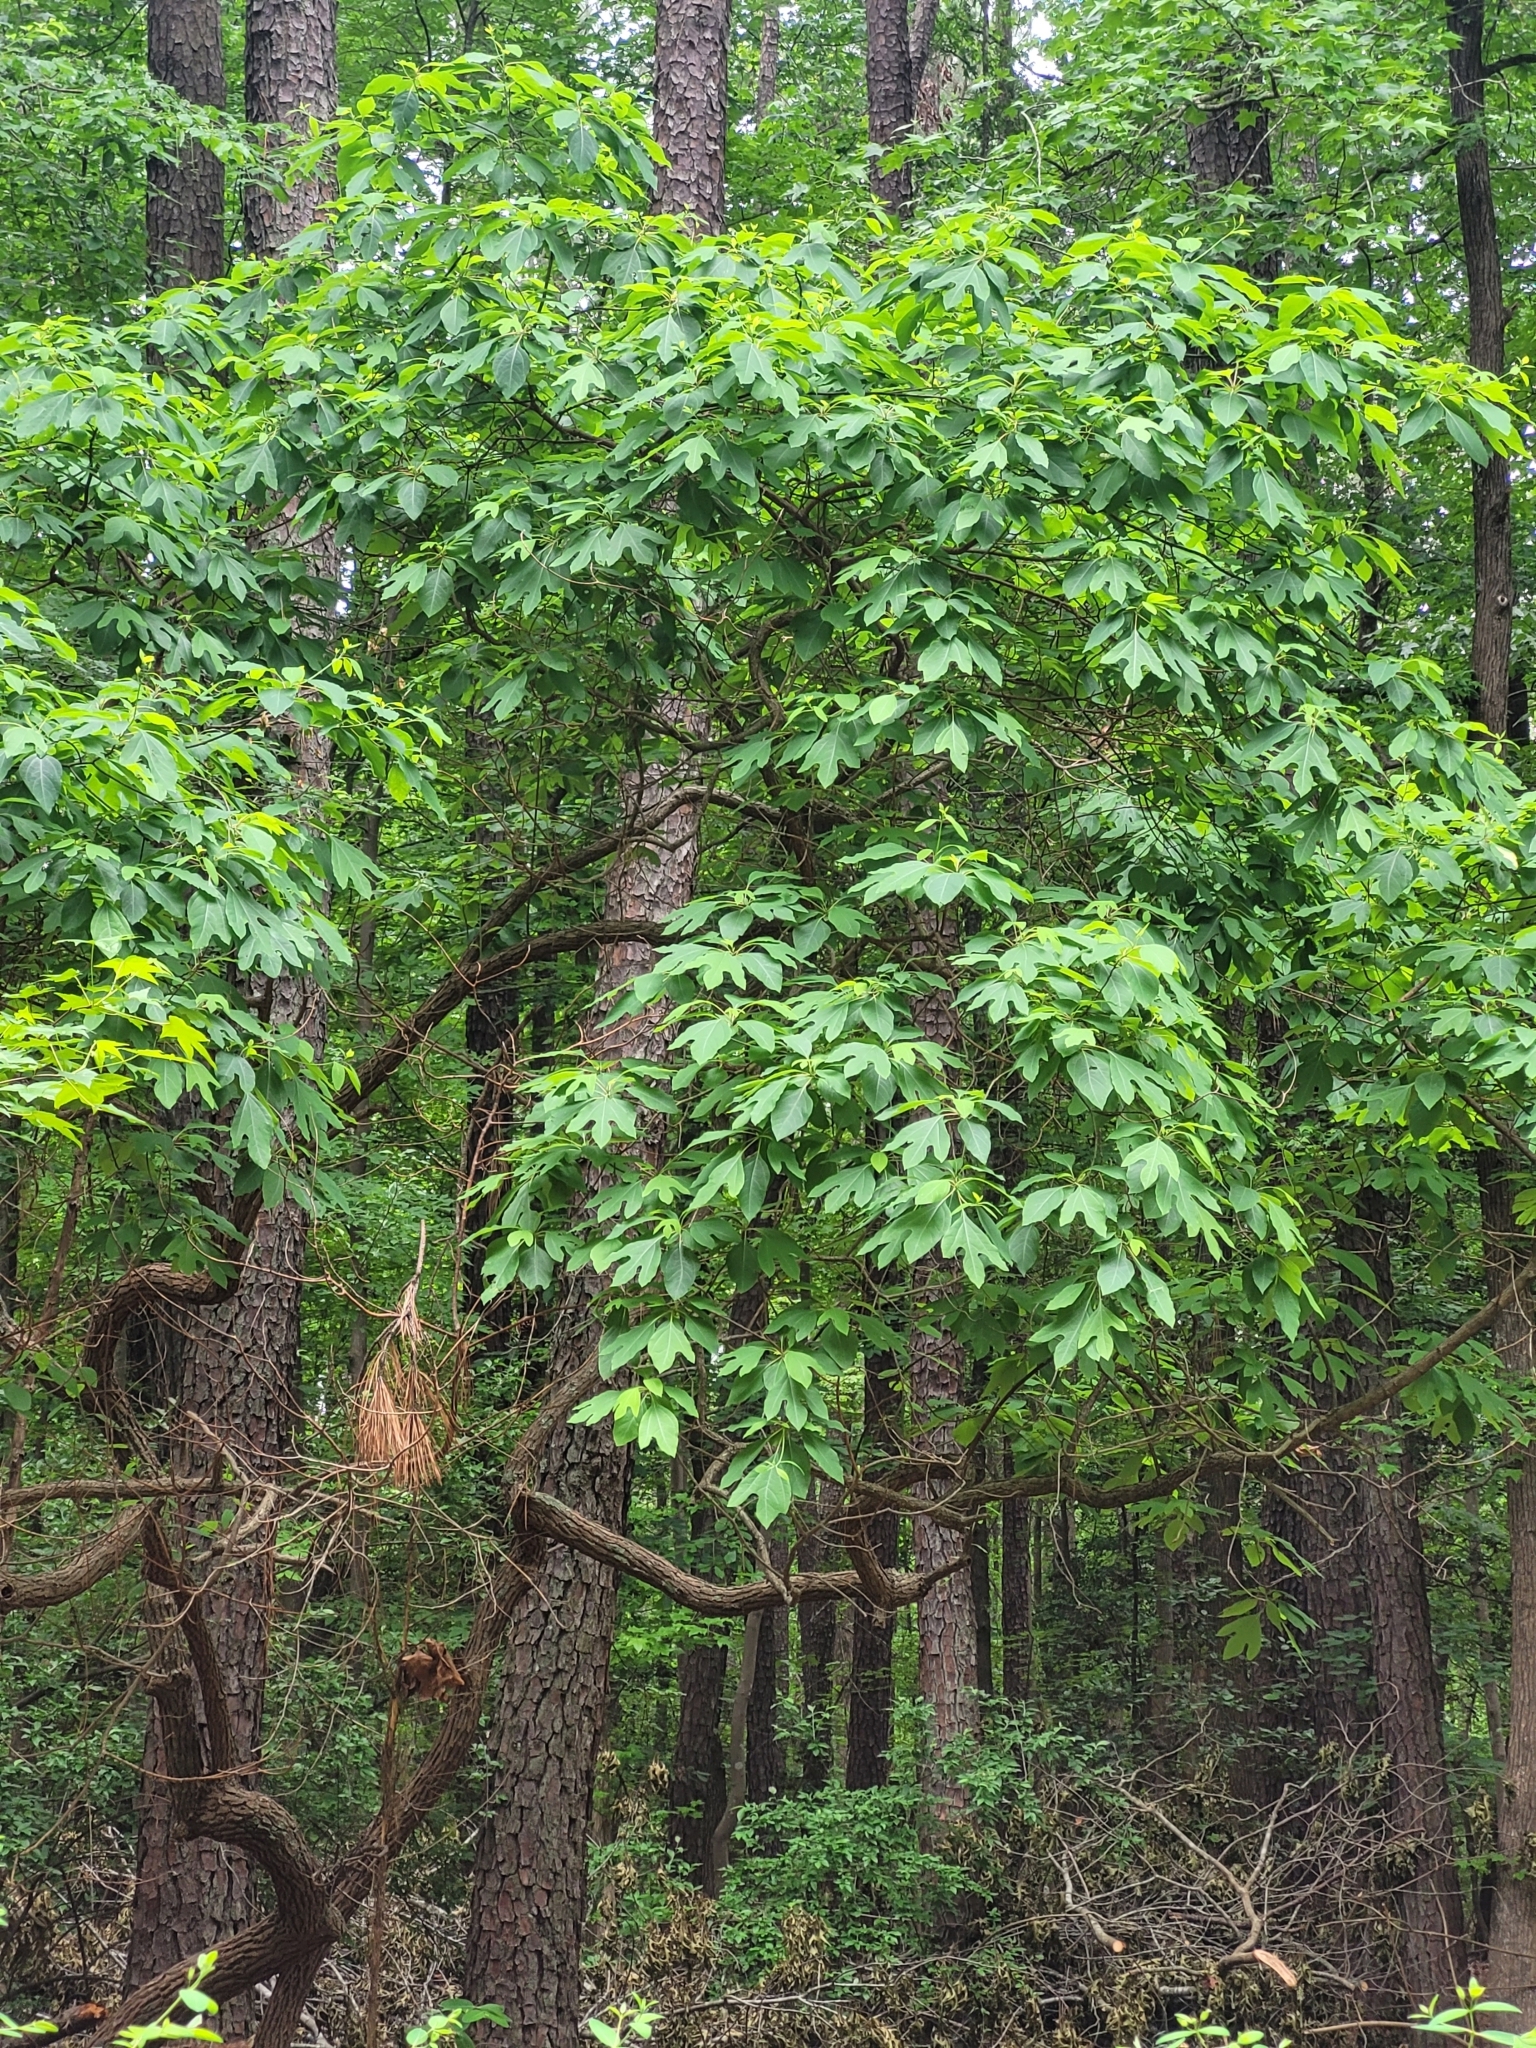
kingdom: Plantae
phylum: Tracheophyta
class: Magnoliopsida
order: Laurales
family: Lauraceae
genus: Sassafras
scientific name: Sassafras albidum
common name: Sassafras
